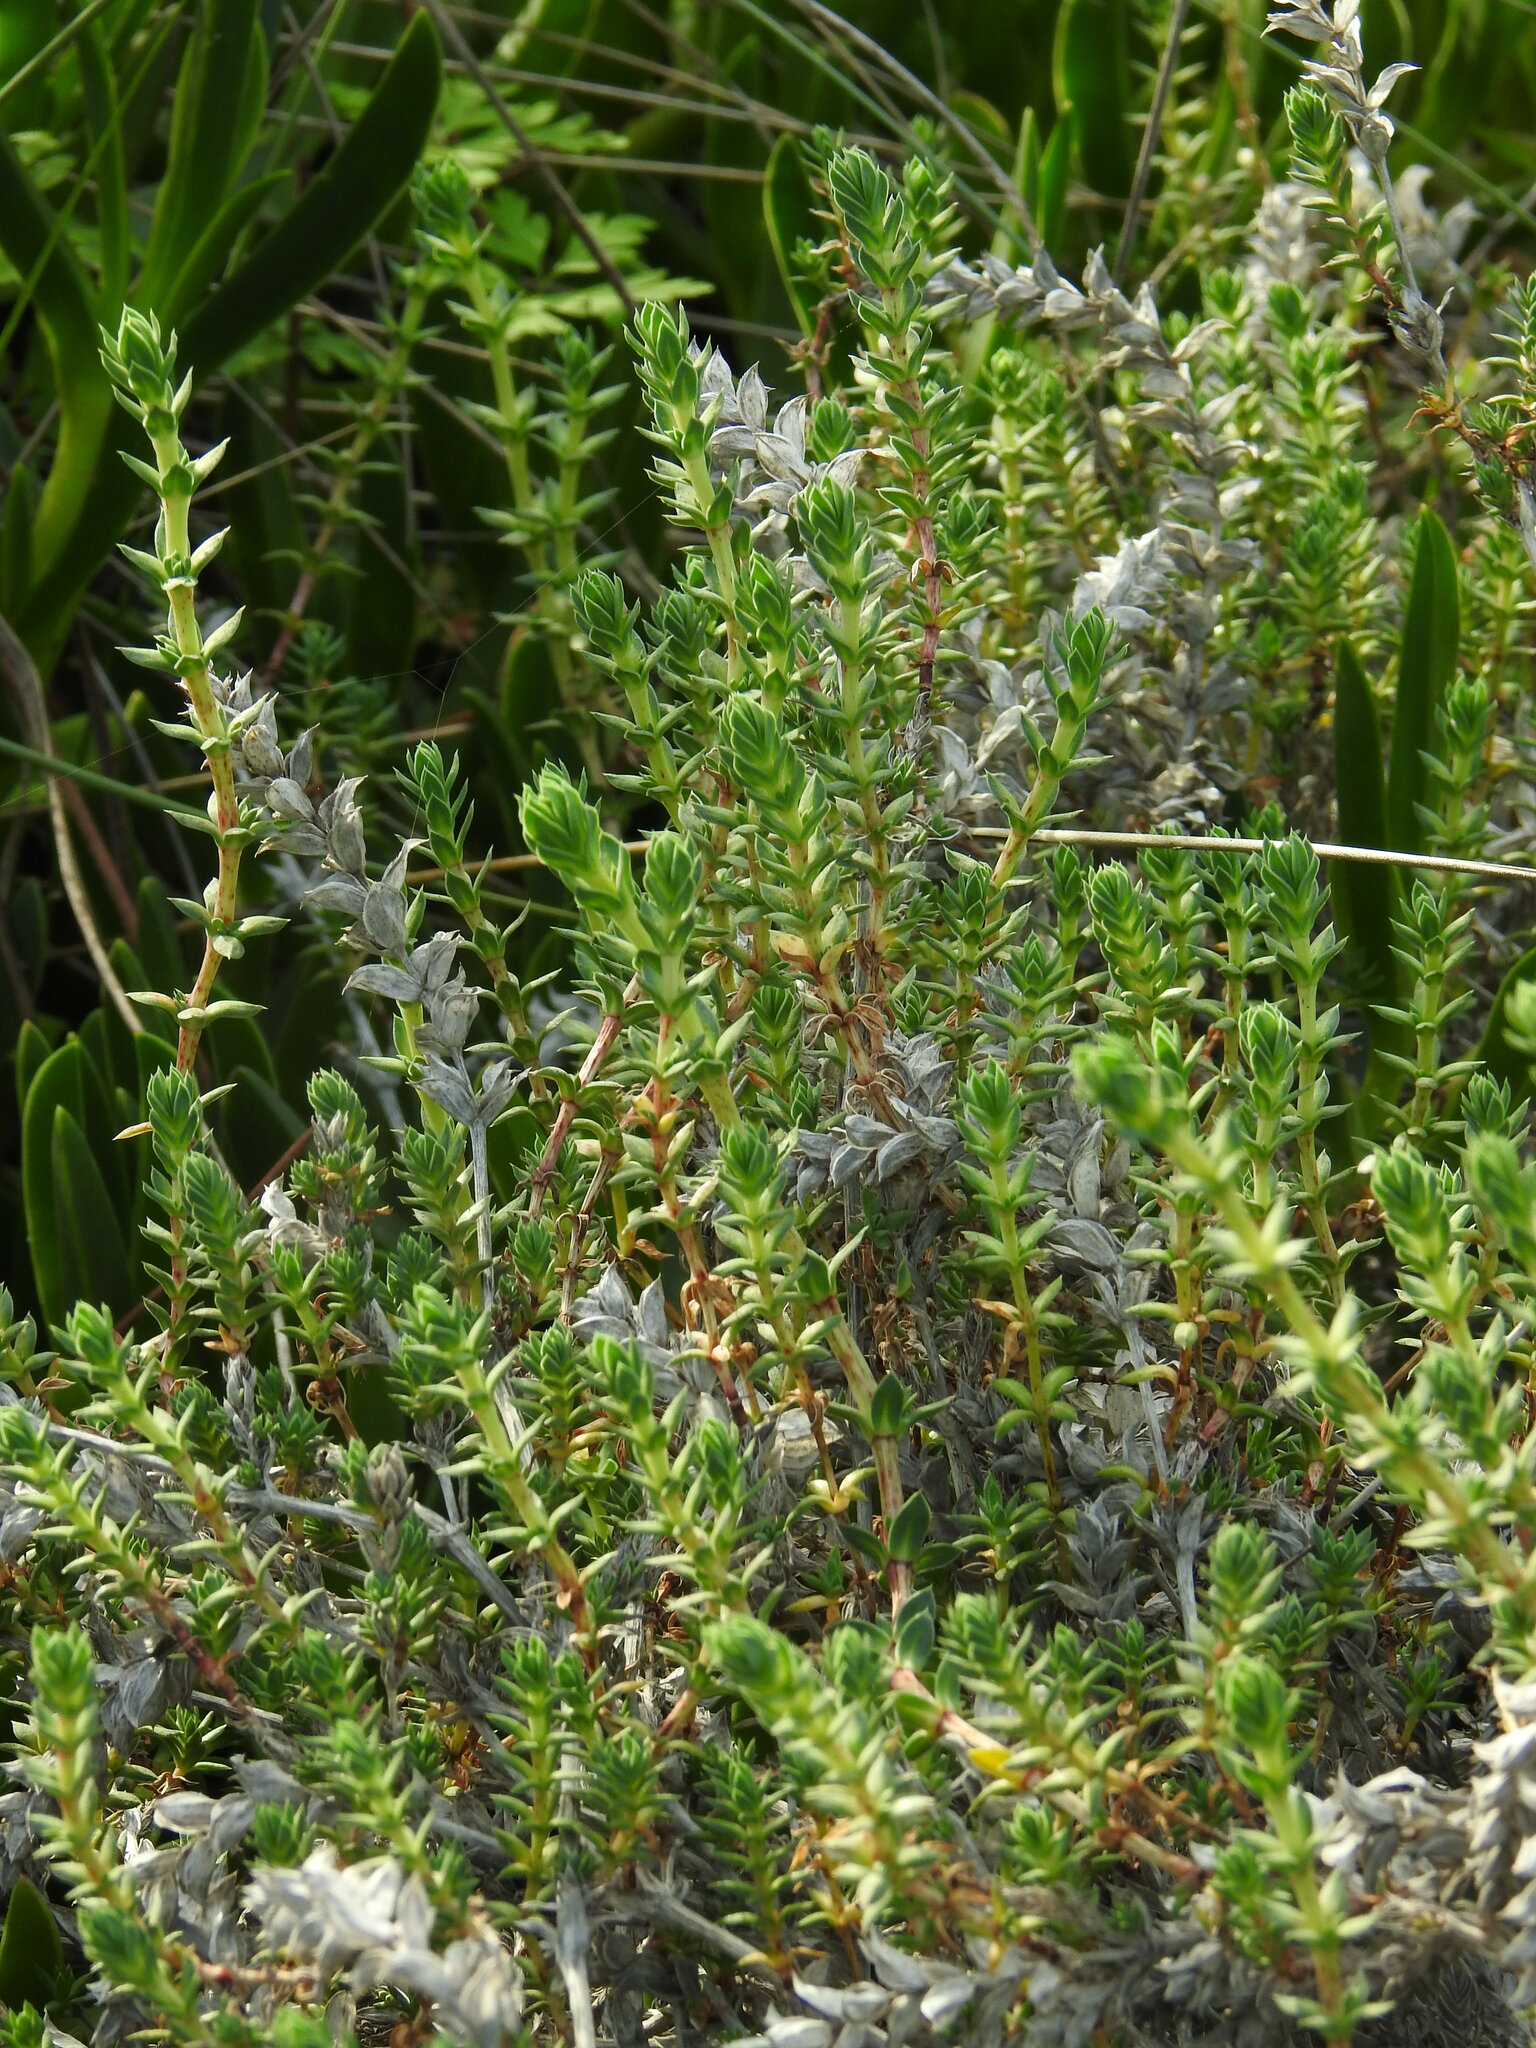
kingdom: Plantae
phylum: Tracheophyta
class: Magnoliopsida
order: Gentianales
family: Rubiaceae
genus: Crucianella
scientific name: Crucianella maritima
